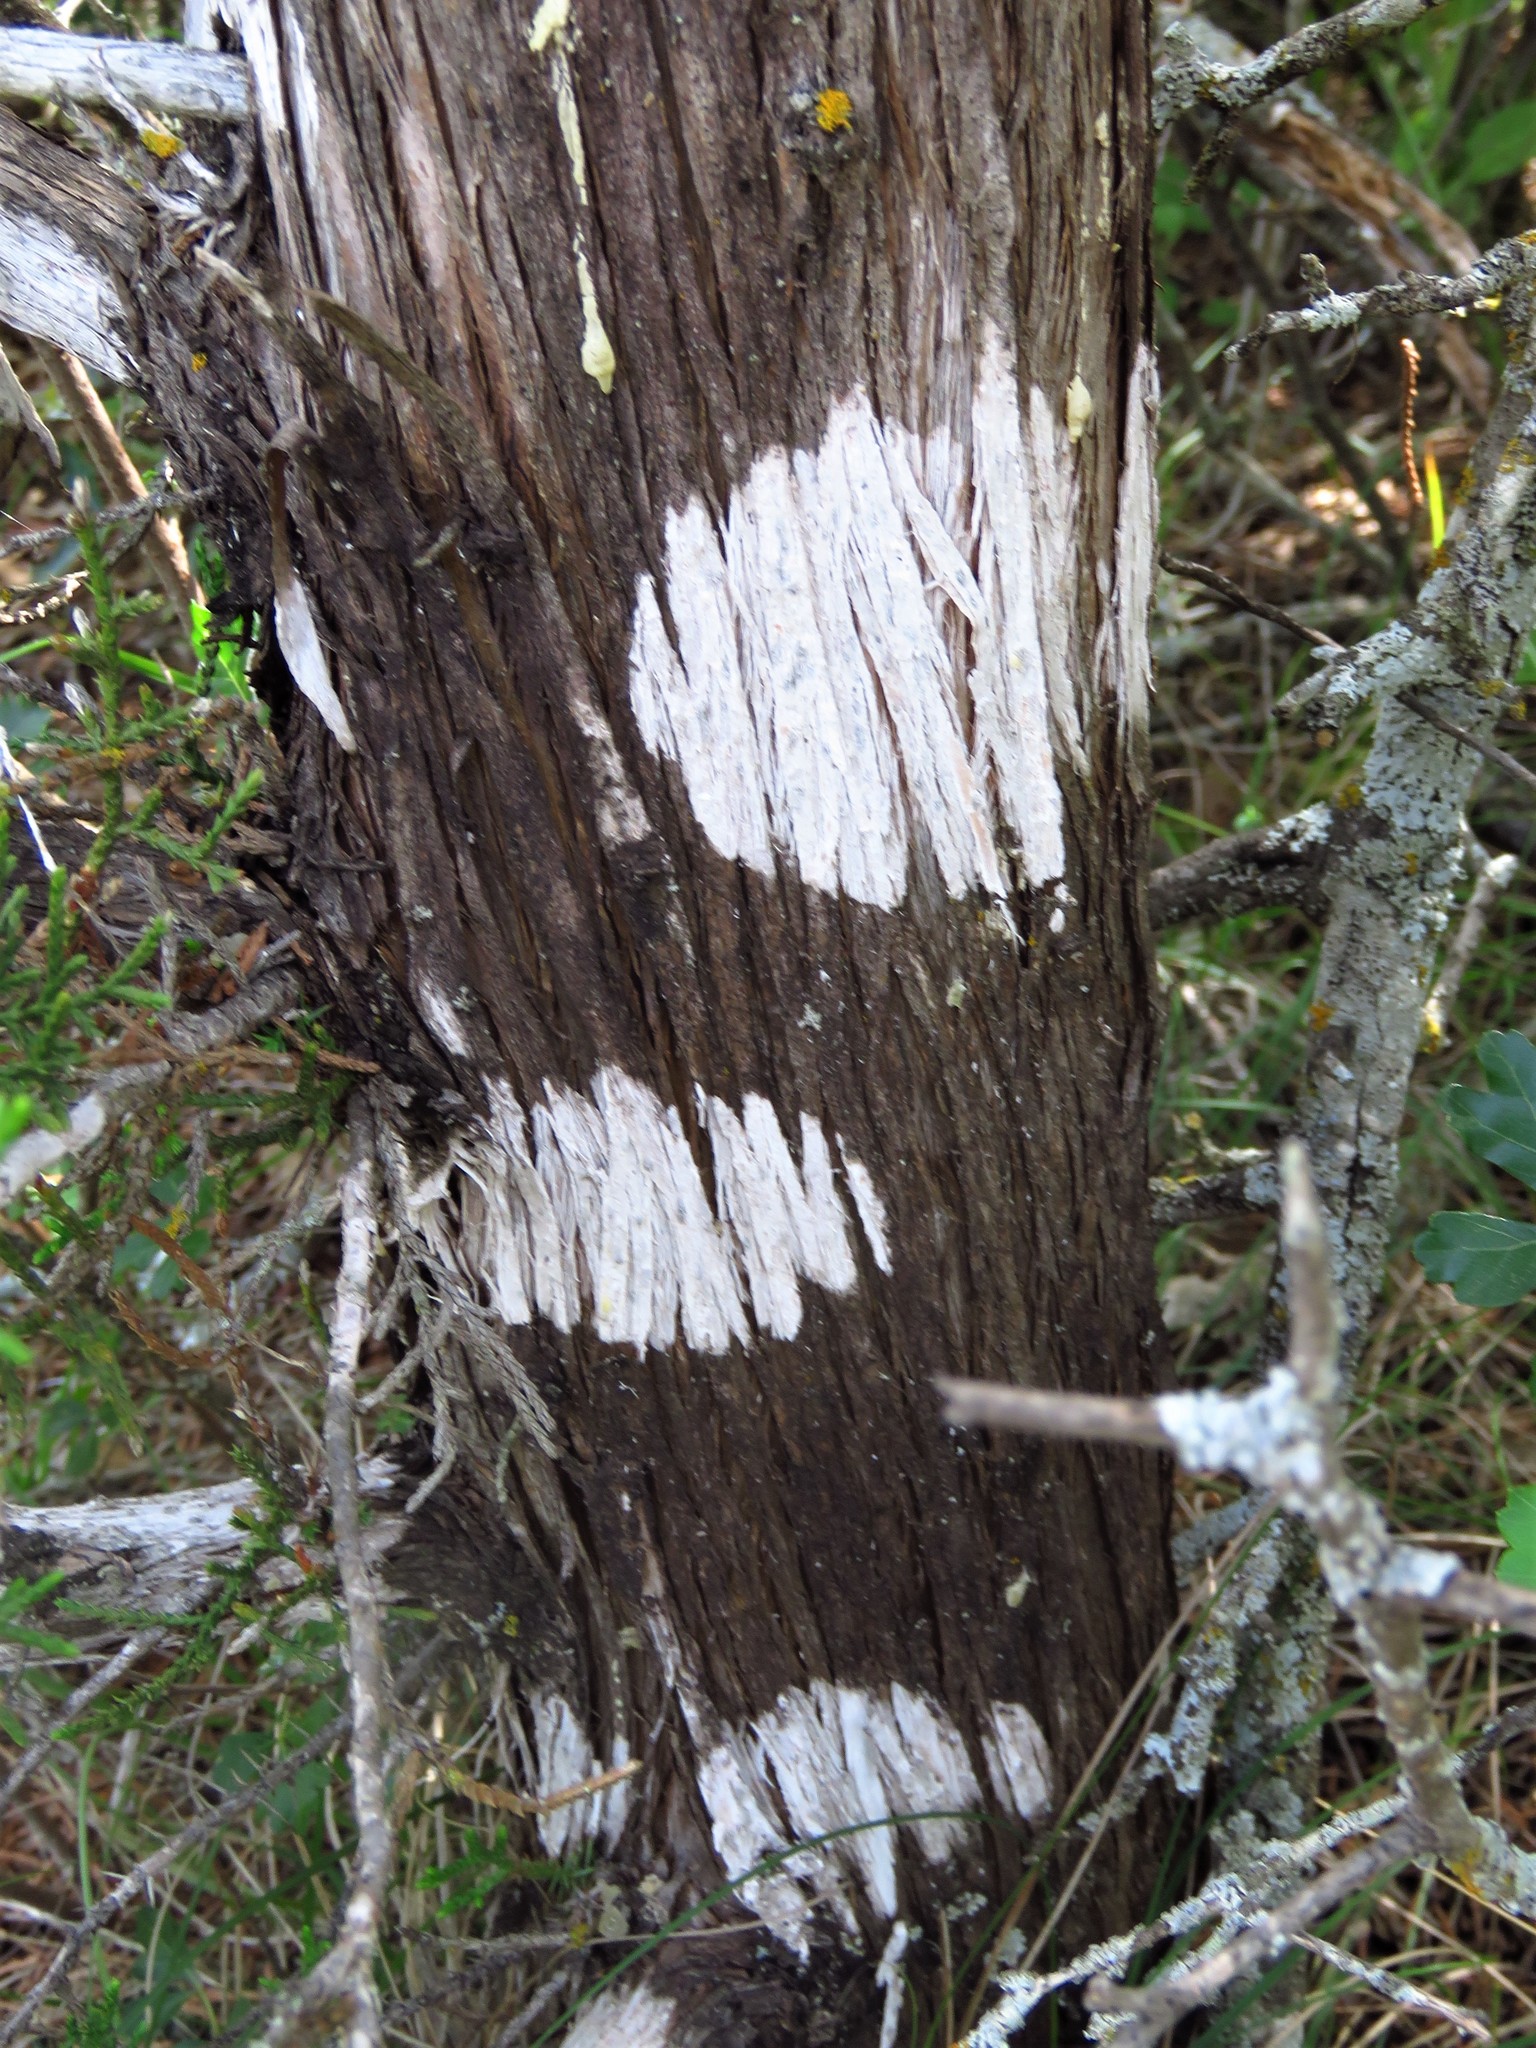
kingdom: Fungi
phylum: Ascomycota
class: Lecanoromycetes
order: Ostropales
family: Stictidaceae
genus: Robergea
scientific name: Robergea
